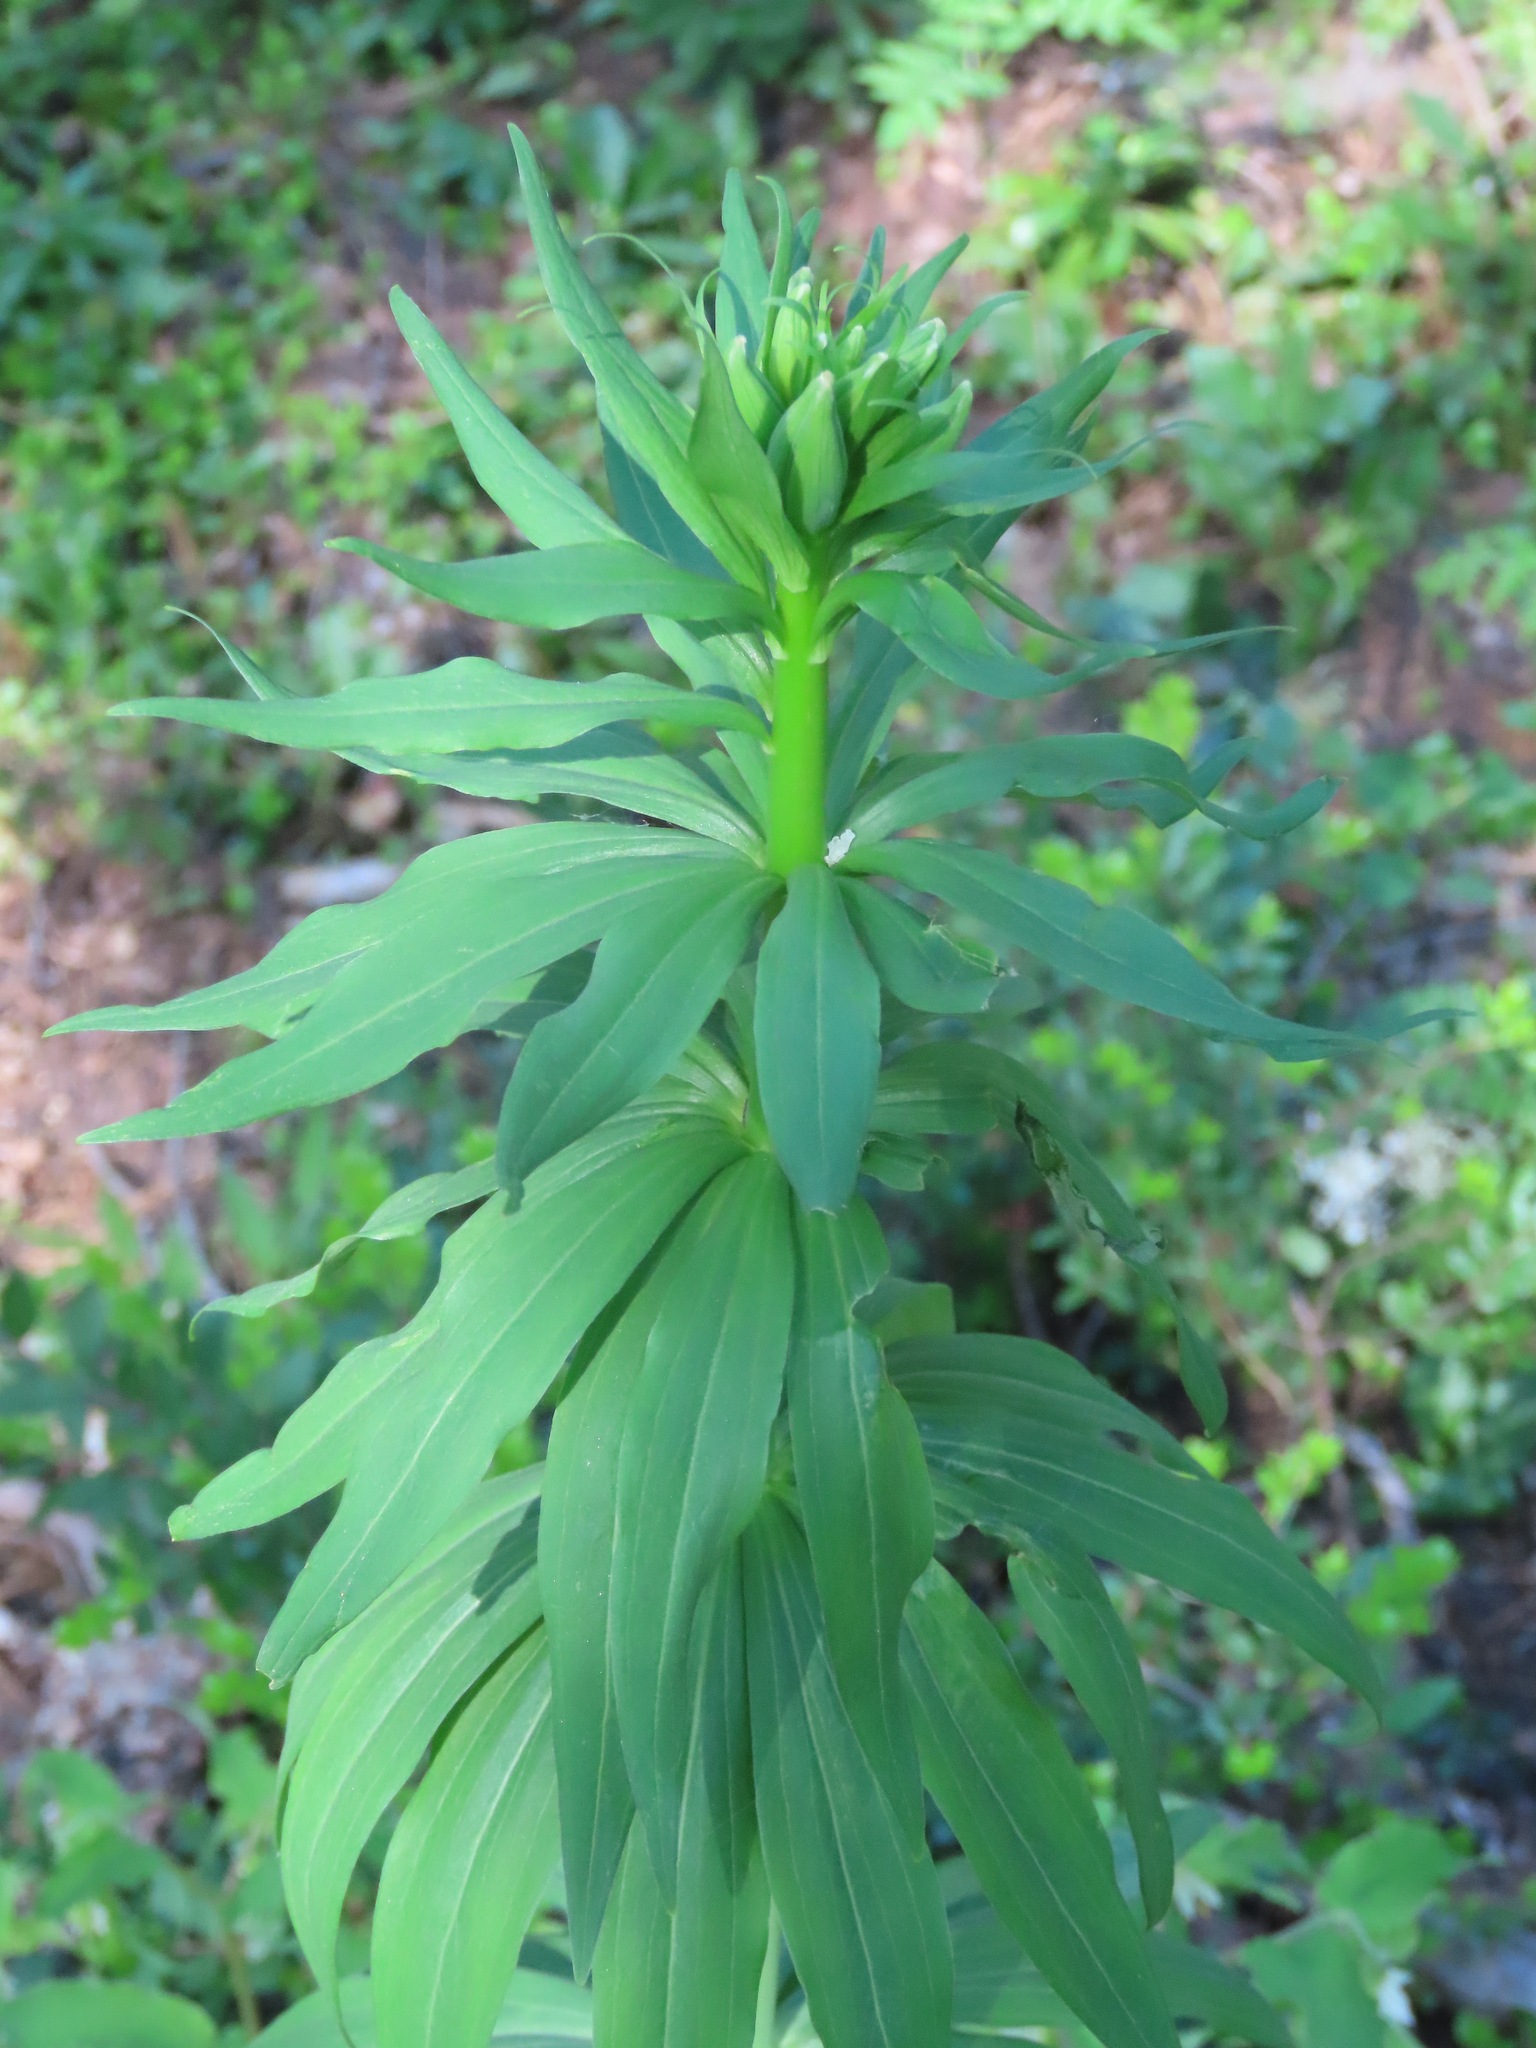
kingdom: Plantae
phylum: Tracheophyta
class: Liliopsida
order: Liliales
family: Liliaceae
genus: Lilium
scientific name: Lilium columbianum
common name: Columbia lily
